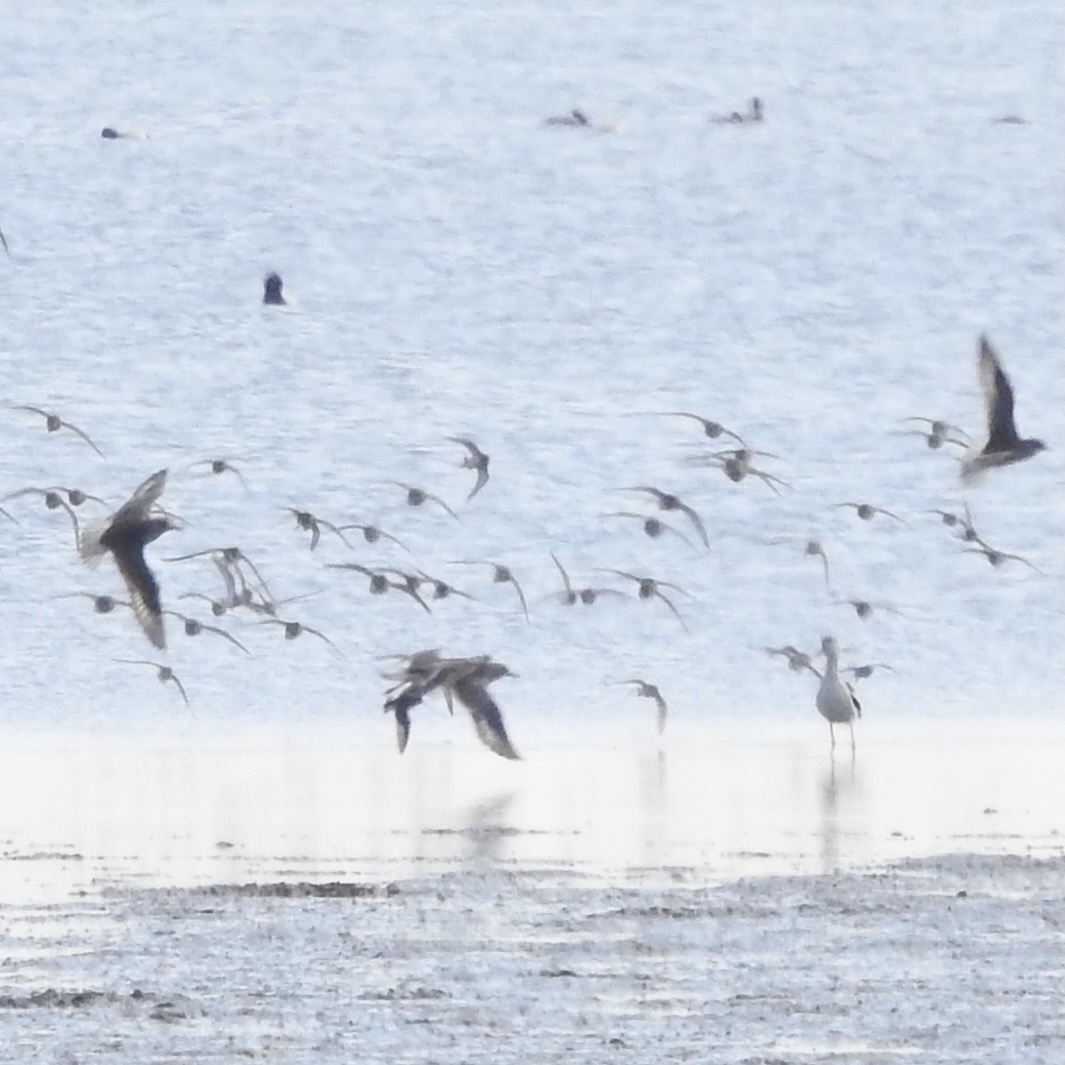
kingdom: Animalia
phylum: Chordata
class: Aves
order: Charadriiformes
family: Charadriidae
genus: Pluvialis
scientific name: Pluvialis squatarola
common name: Grey plover
